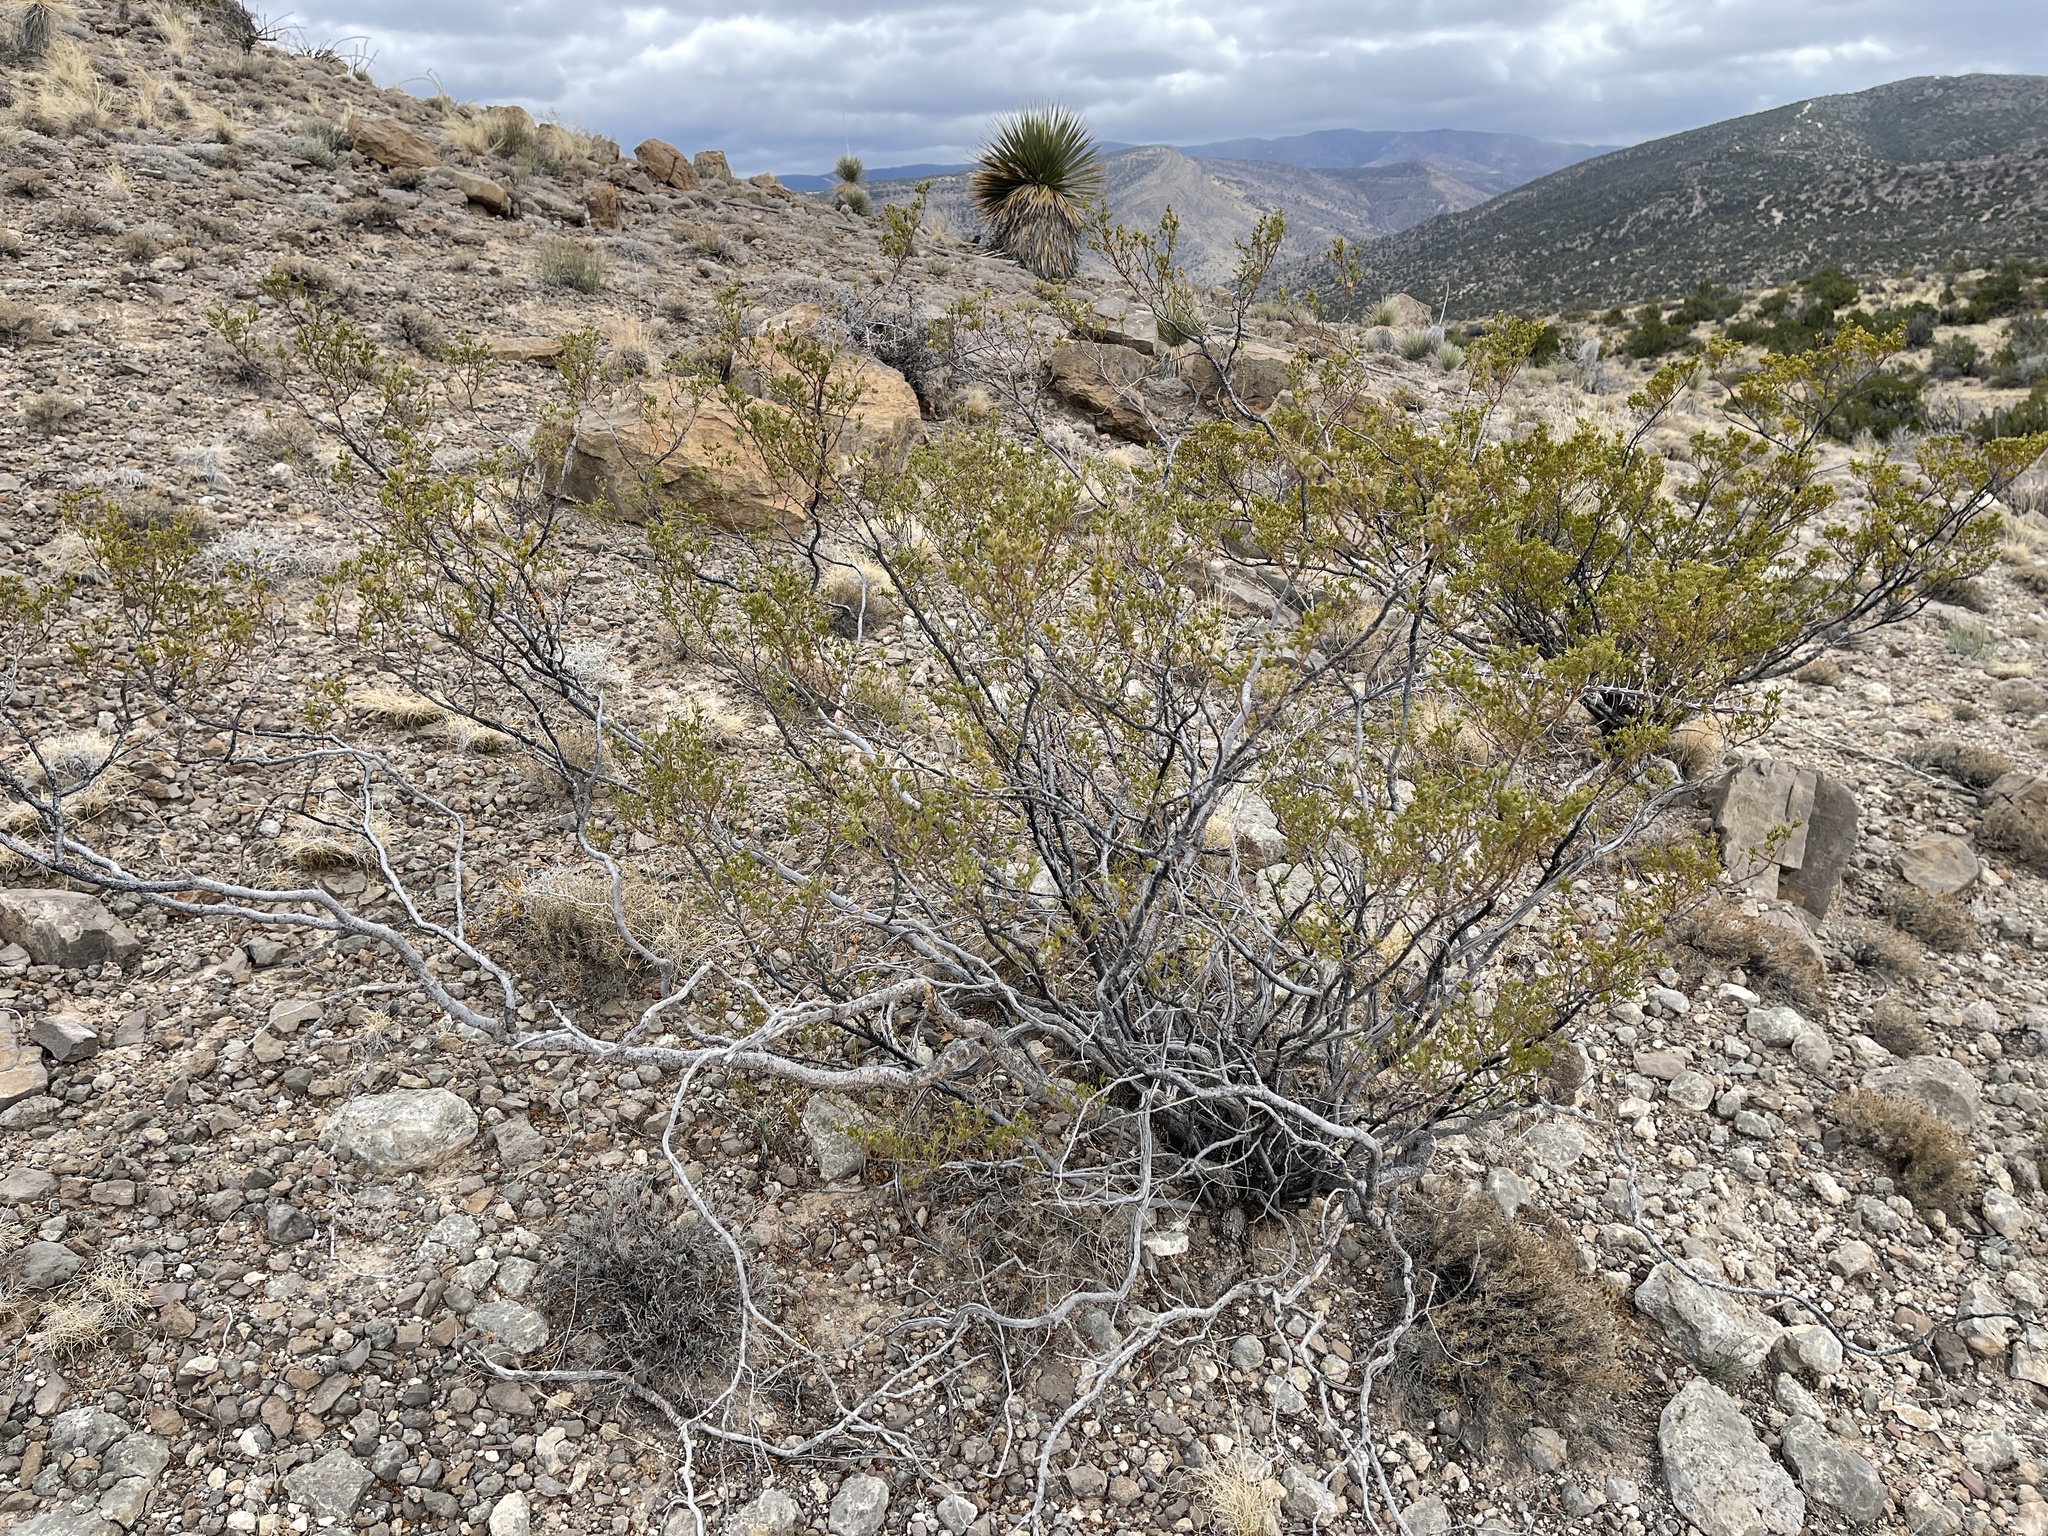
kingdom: Plantae
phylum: Tracheophyta
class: Magnoliopsida
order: Zygophyllales
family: Zygophyllaceae
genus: Larrea
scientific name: Larrea tridentata
